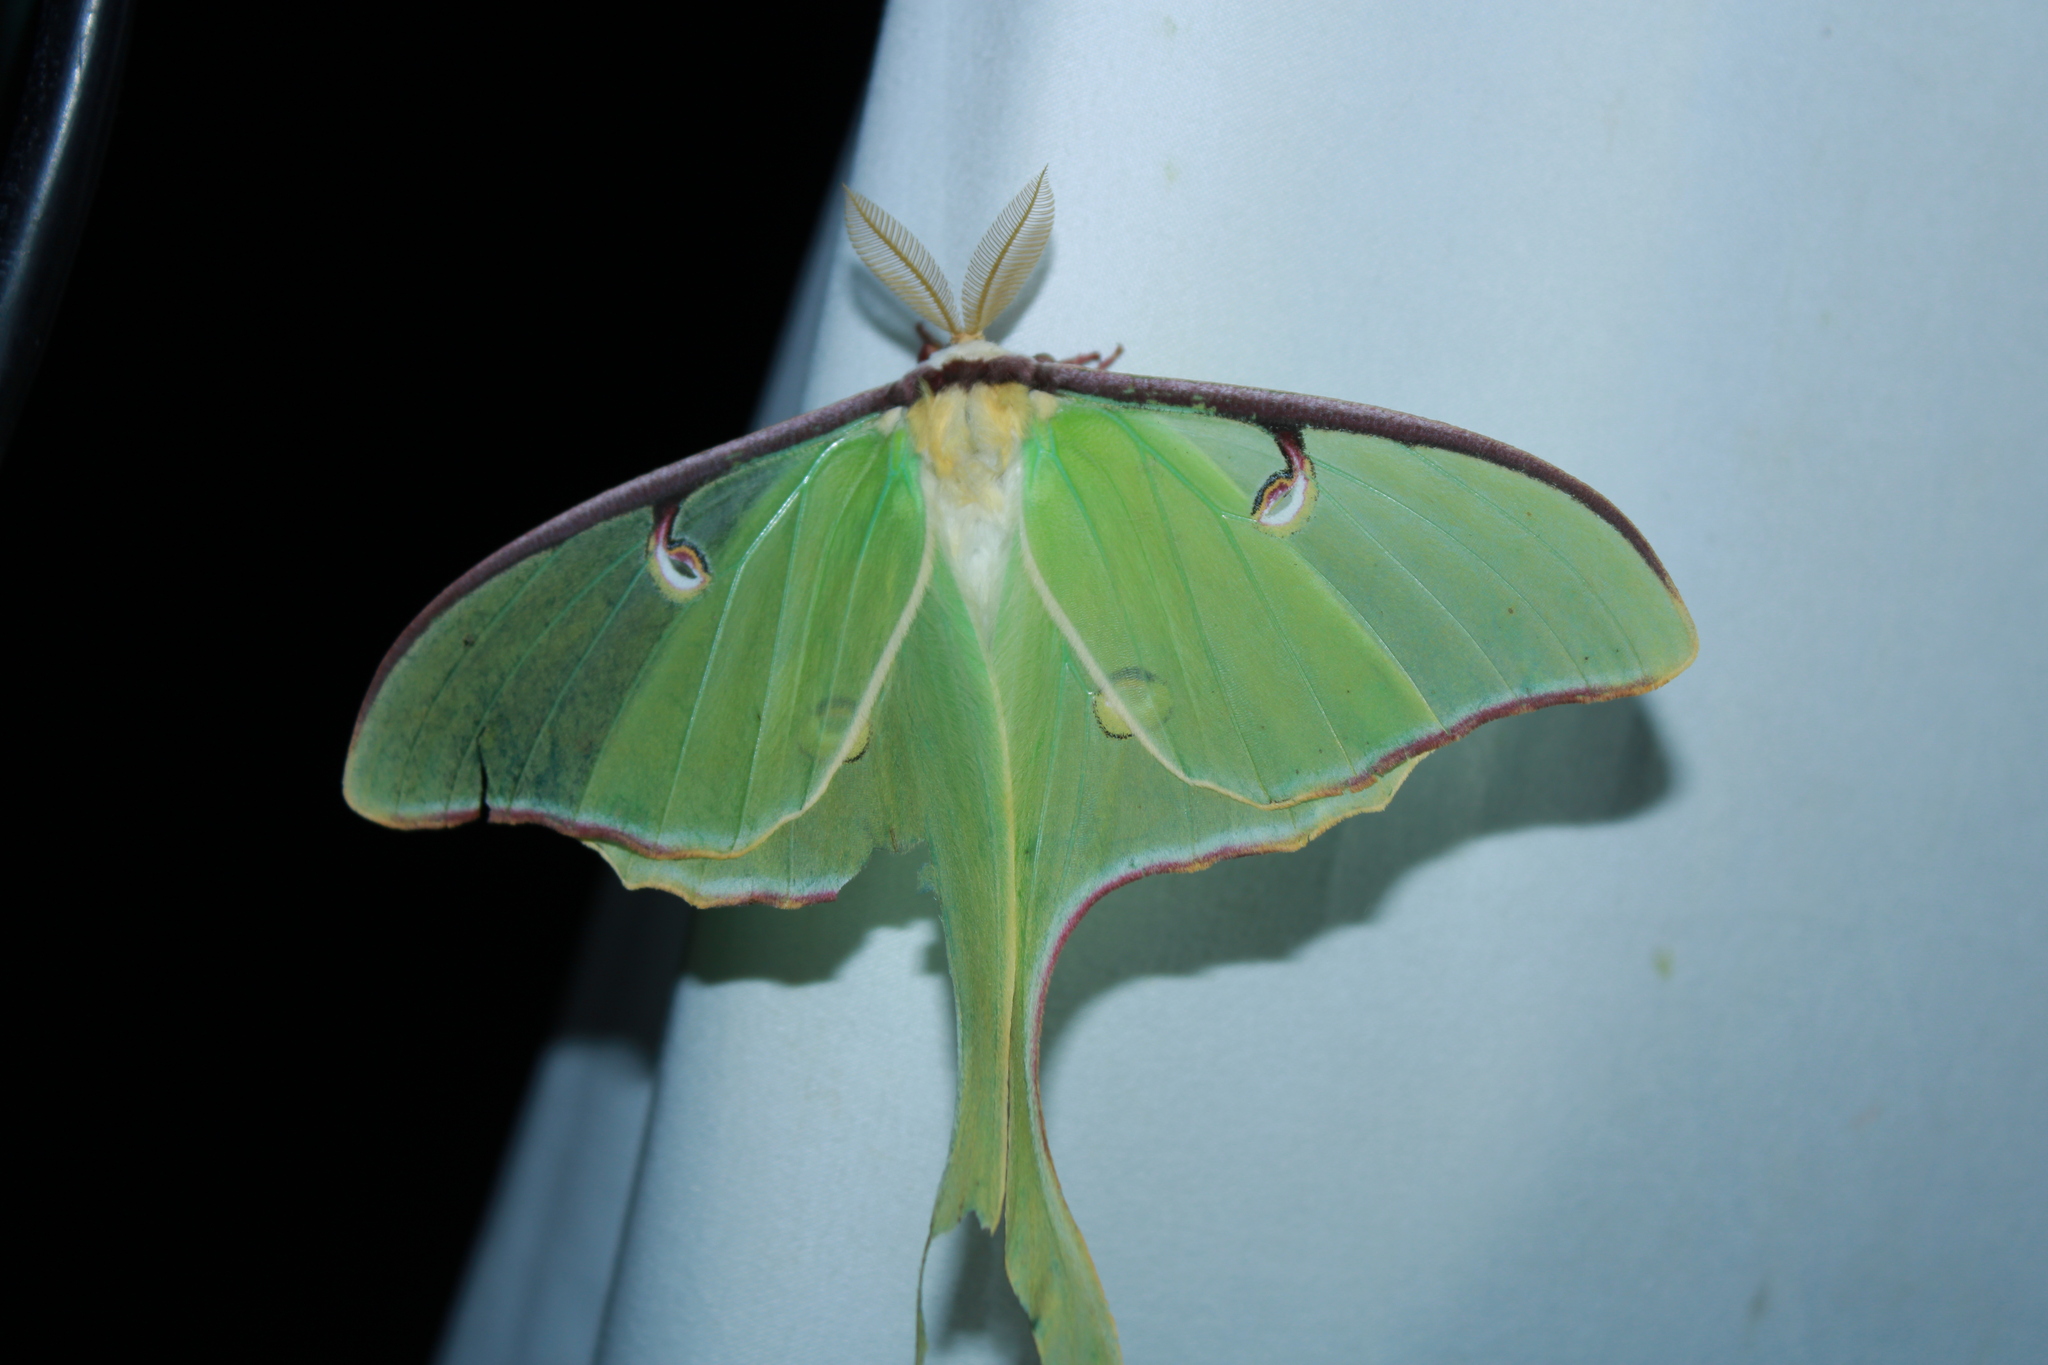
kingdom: Animalia
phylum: Arthropoda
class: Insecta
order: Lepidoptera
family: Saturniidae
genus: Actias
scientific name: Actias luna
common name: Luna moth
